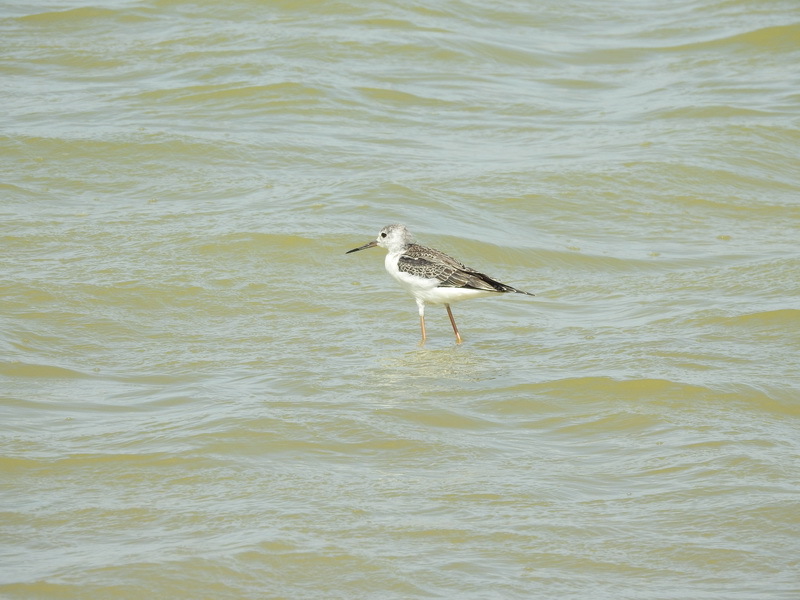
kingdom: Animalia
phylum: Chordata
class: Aves
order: Charadriiformes
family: Recurvirostridae
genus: Himantopus
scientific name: Himantopus himantopus
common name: Black-winged stilt
